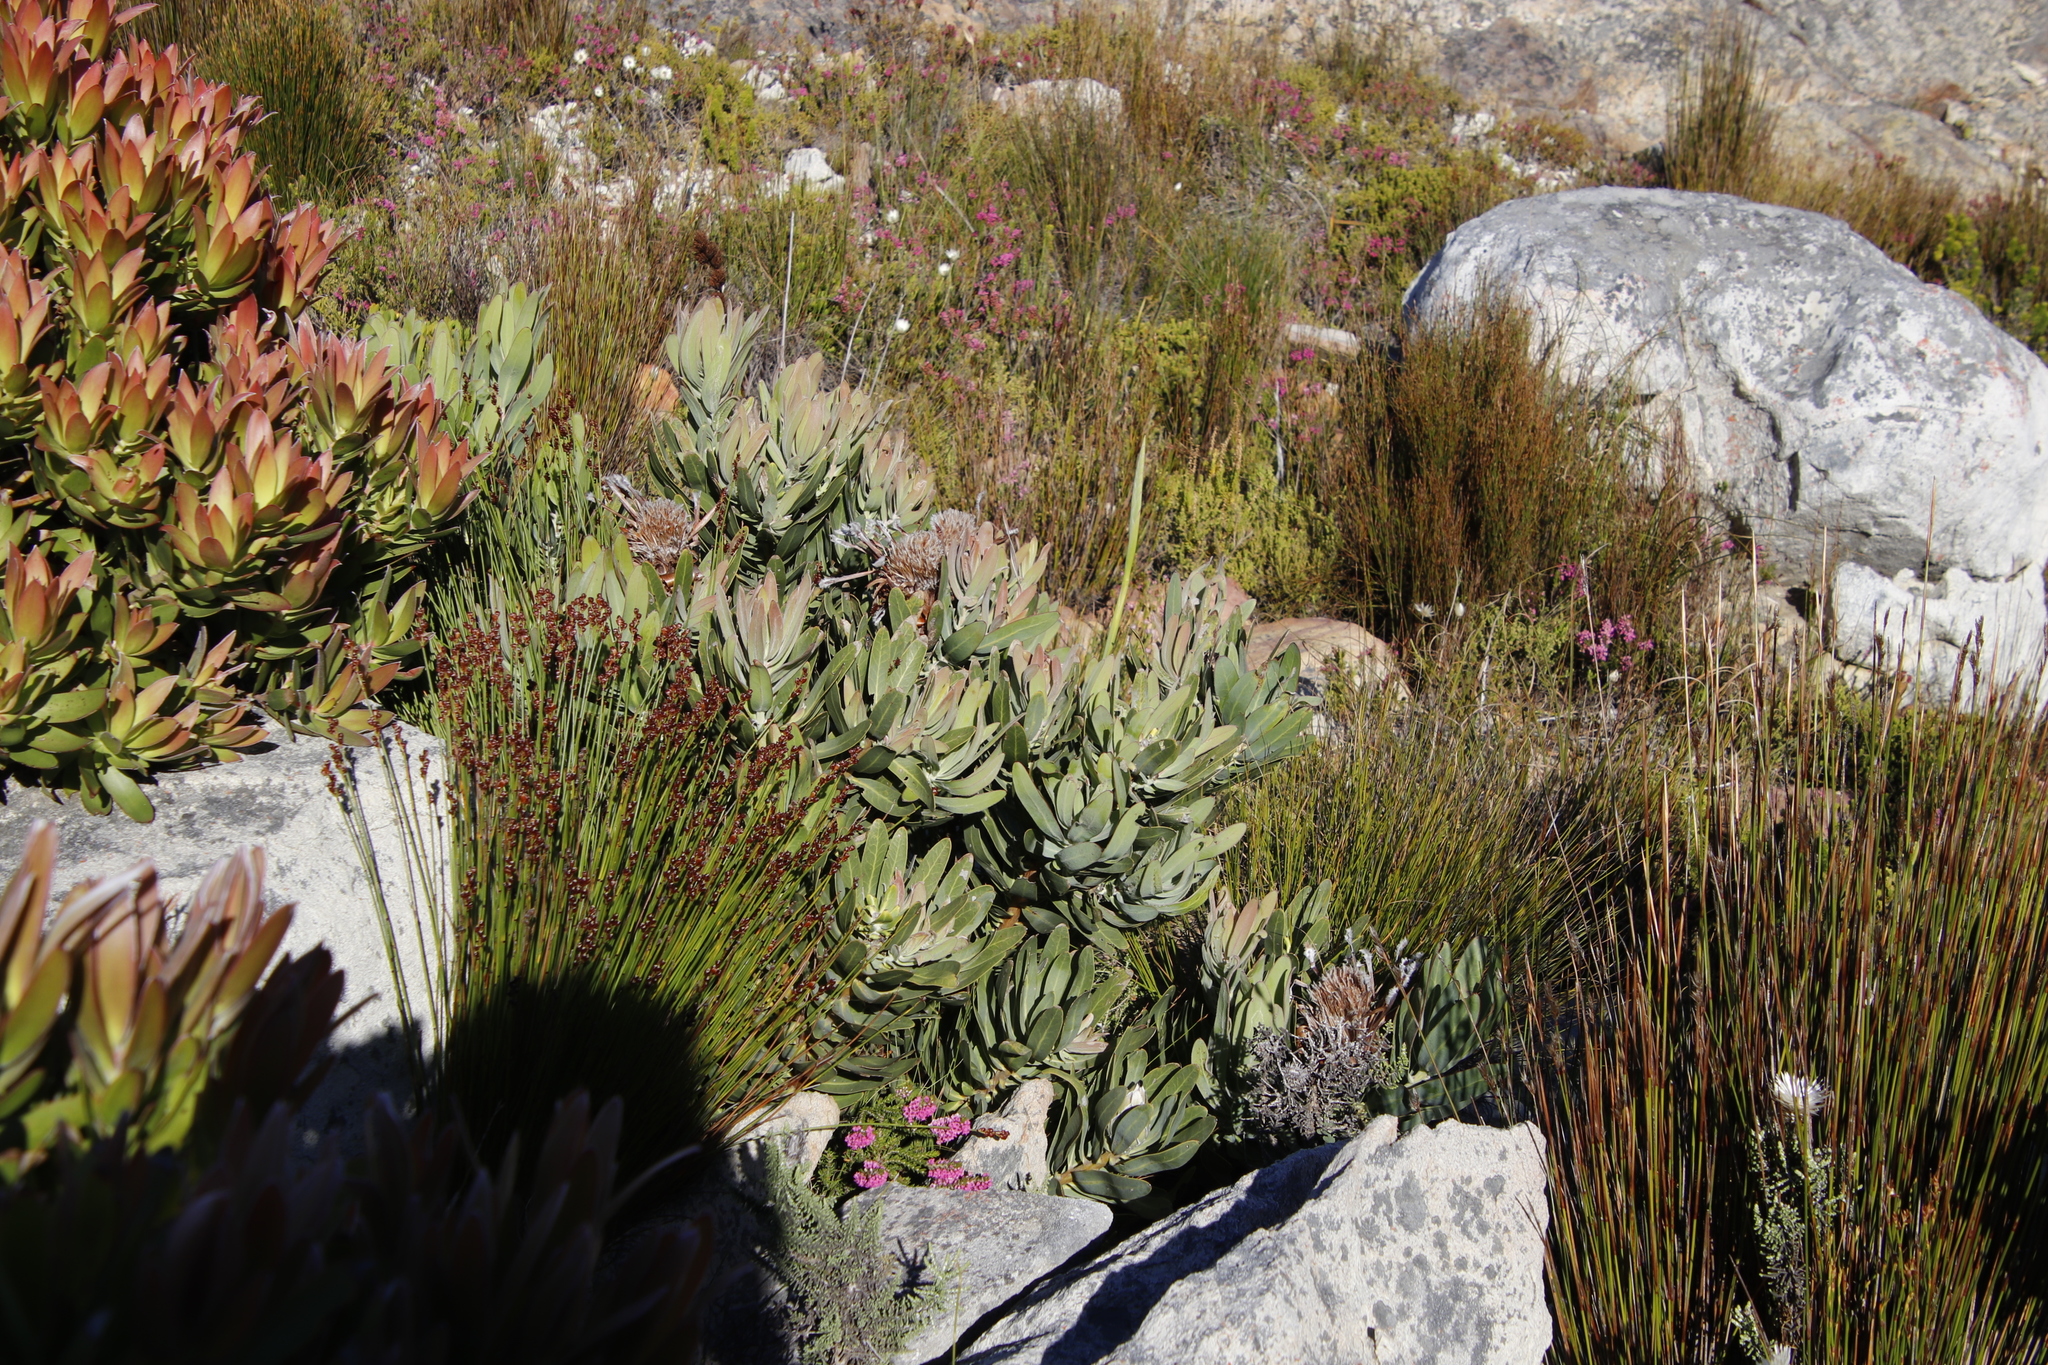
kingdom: Plantae
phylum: Tracheophyta
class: Magnoliopsida
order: Proteales
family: Proteaceae
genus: Protea
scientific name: Protea laurifolia
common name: Grey-leaf sugarbsh
